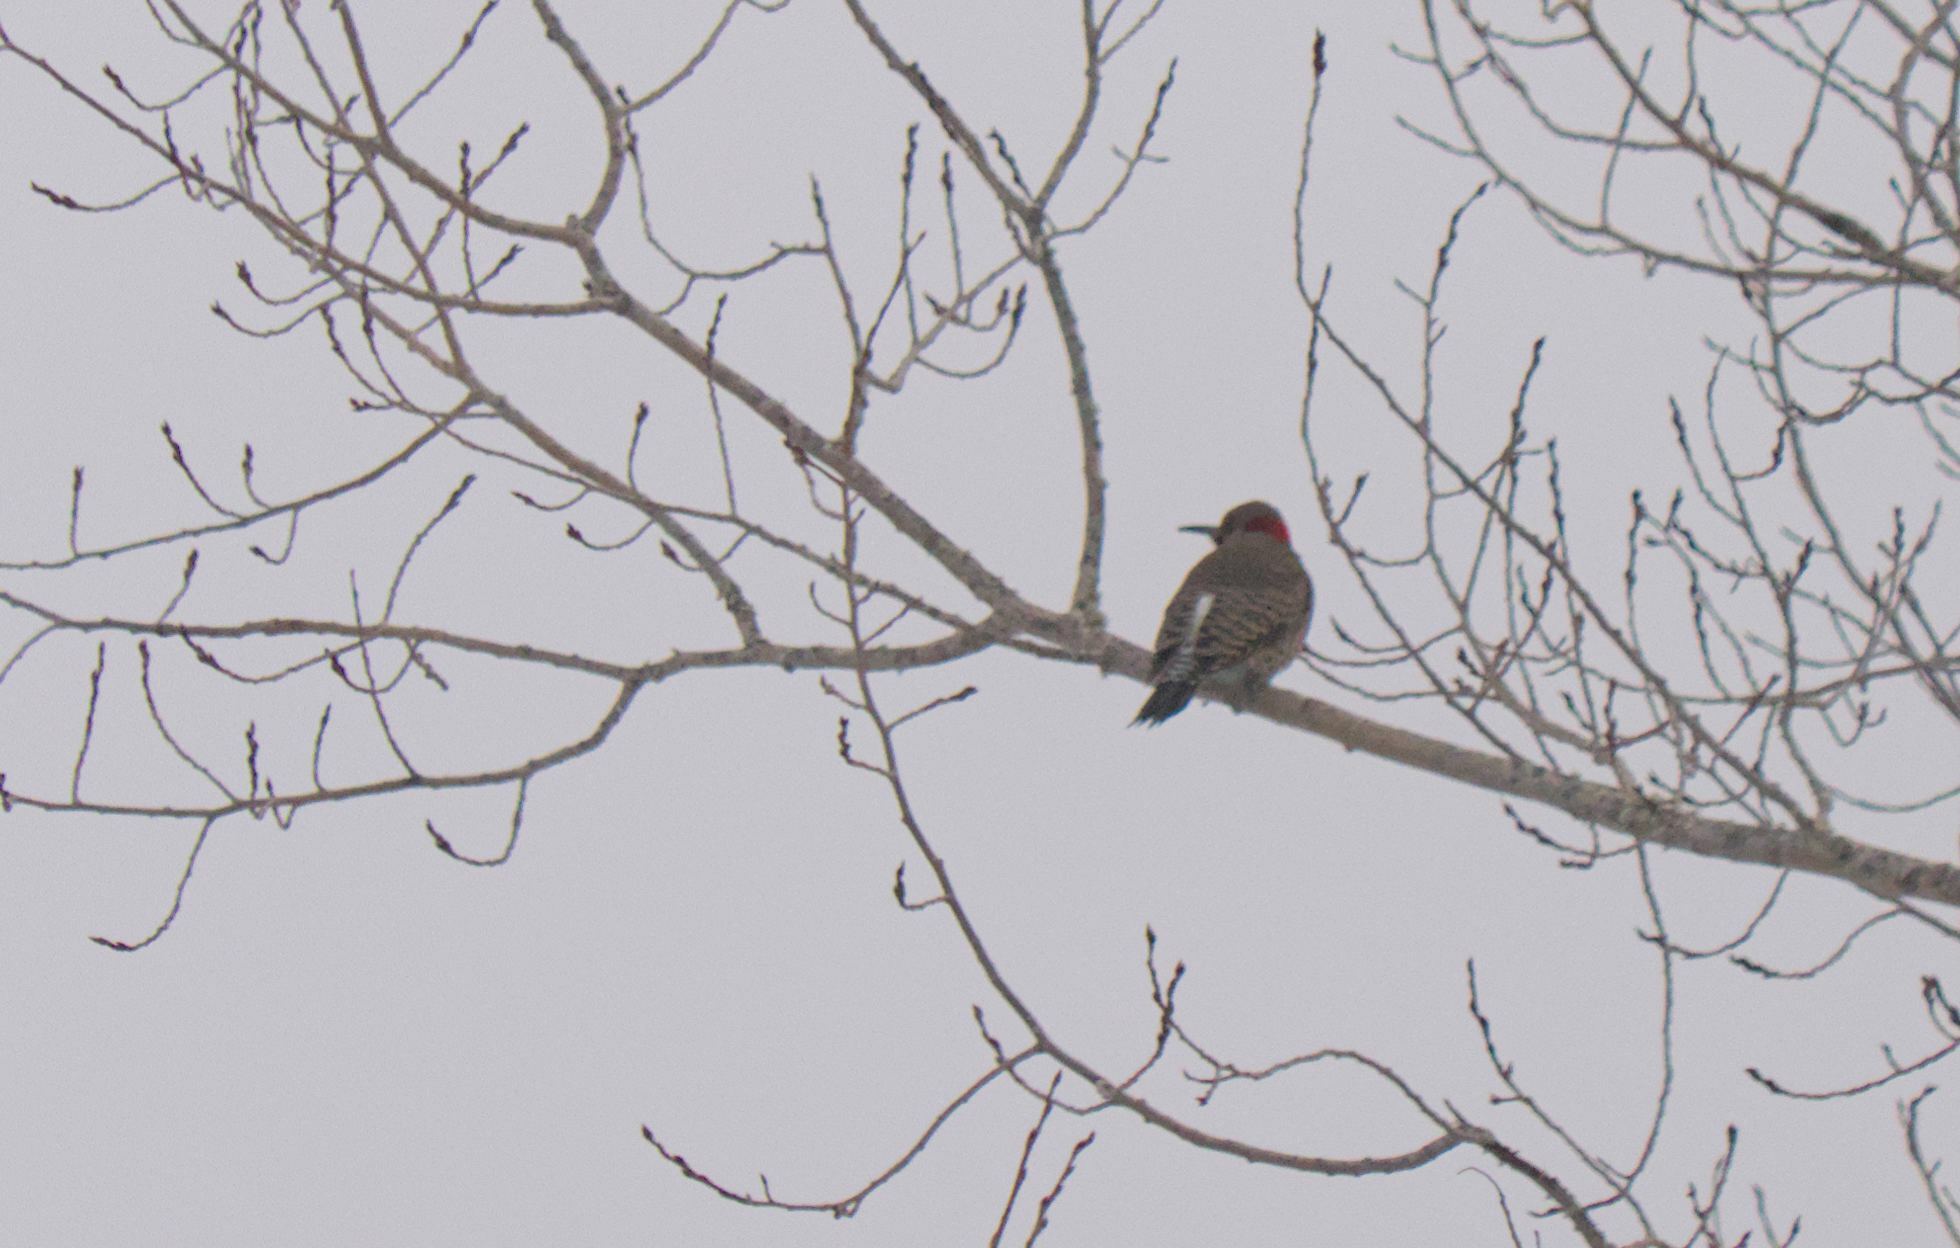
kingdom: Animalia
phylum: Chordata
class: Aves
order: Piciformes
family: Picidae
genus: Colaptes
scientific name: Colaptes auratus
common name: Northern flicker
